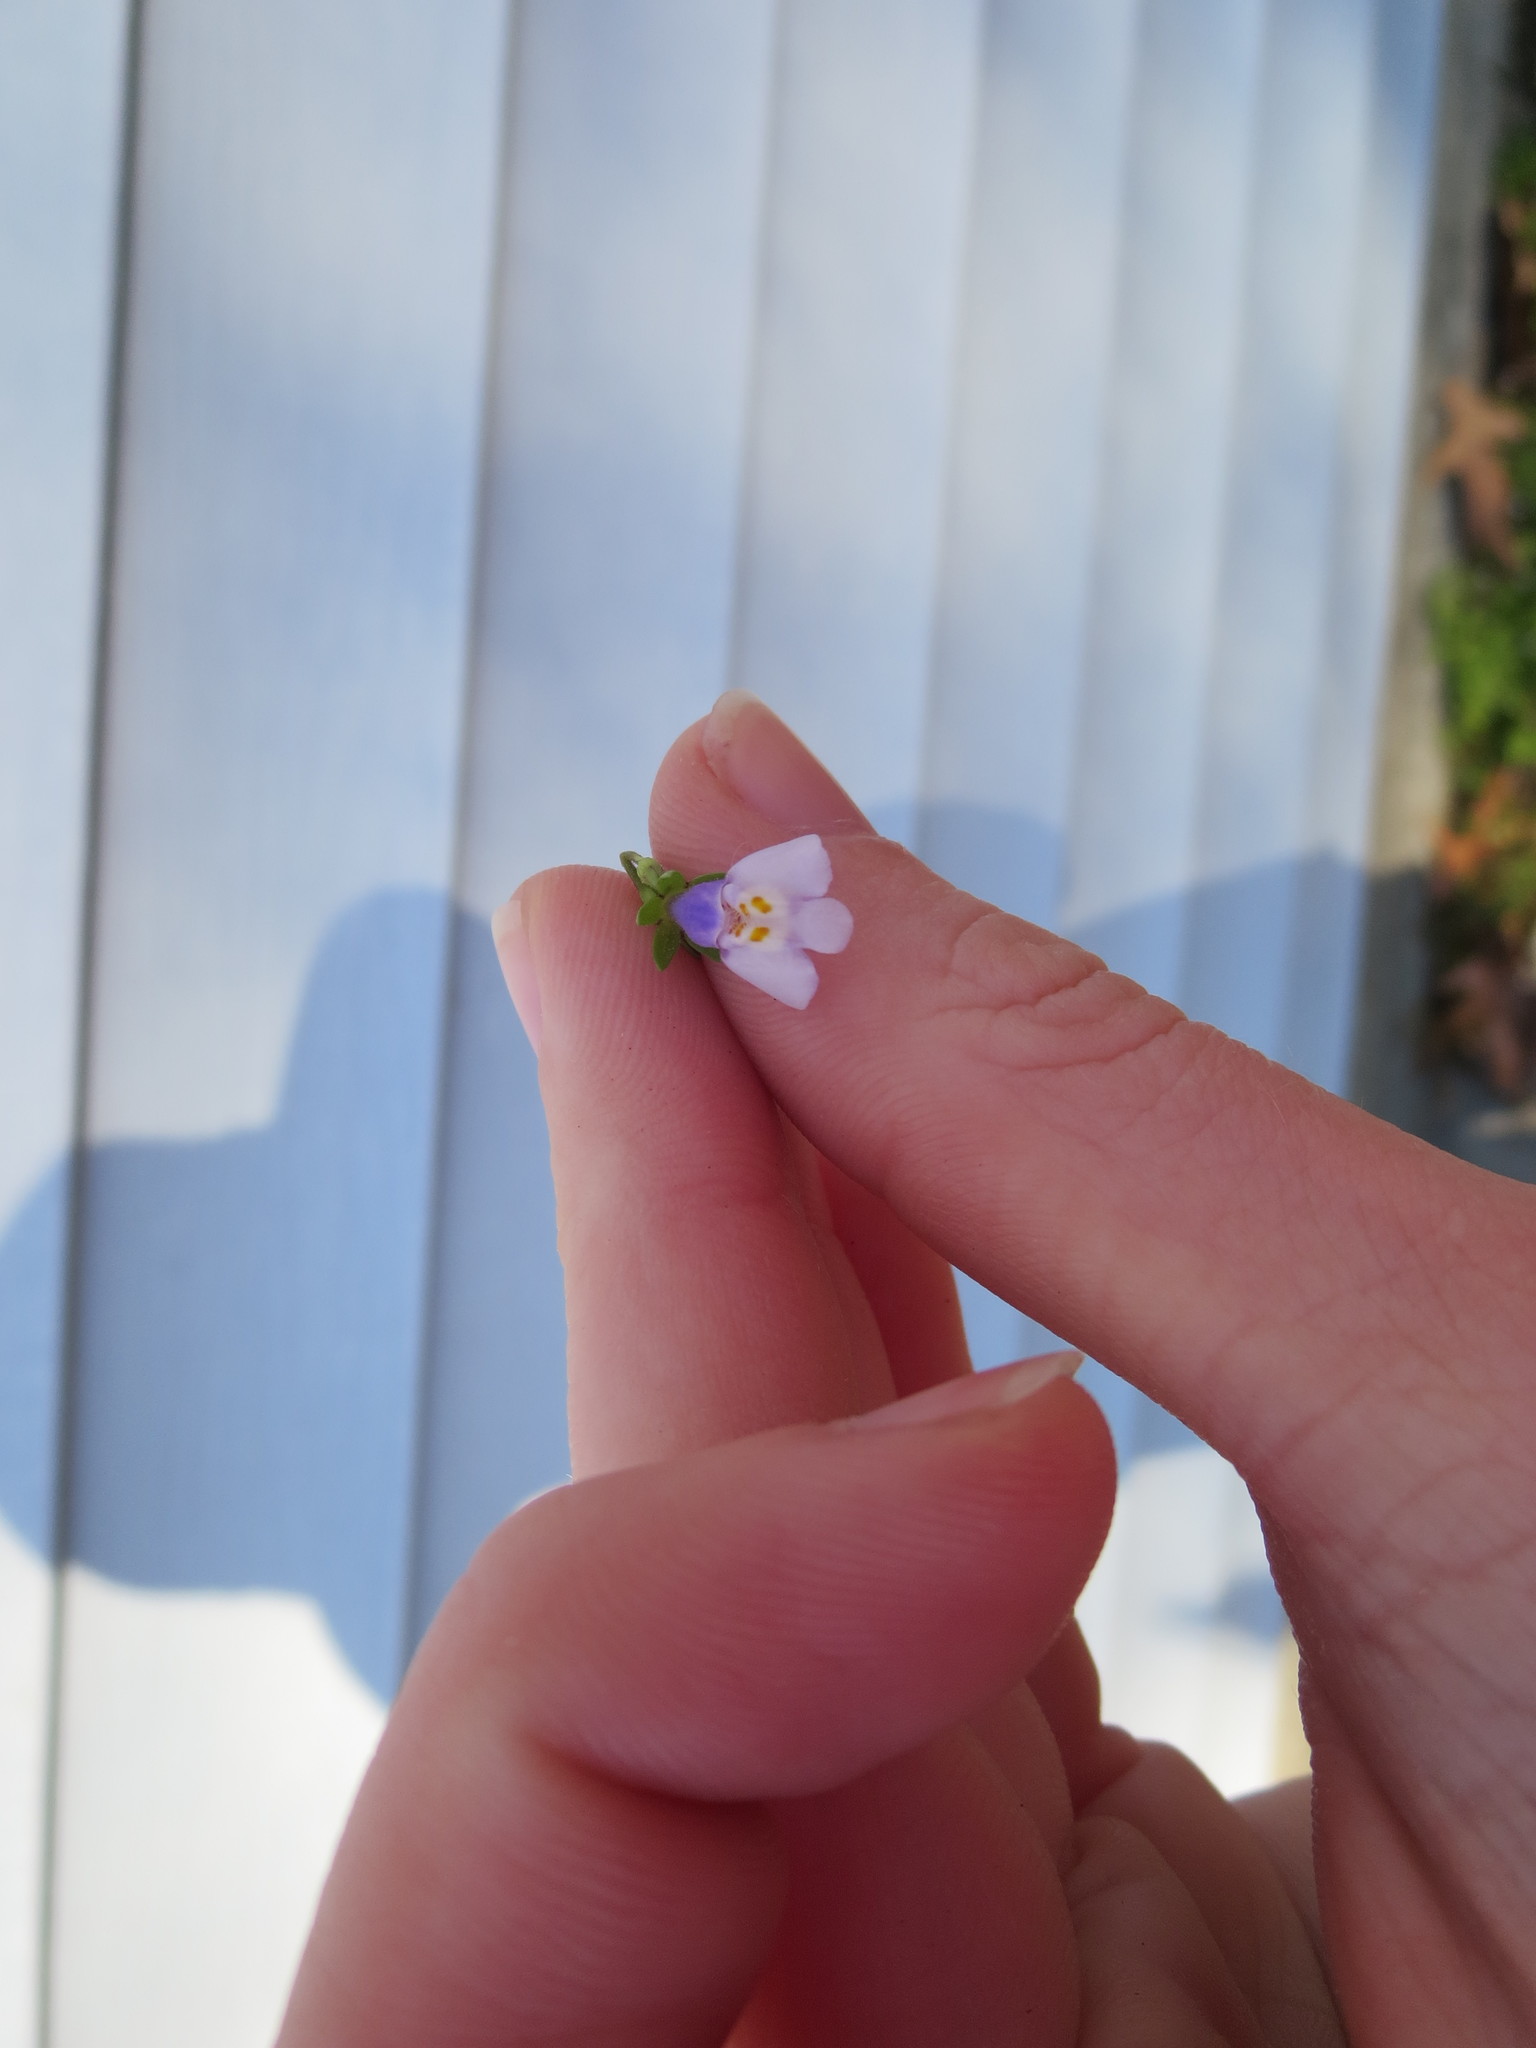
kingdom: Plantae
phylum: Tracheophyta
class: Magnoliopsida
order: Lamiales
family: Mazaceae
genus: Mazus
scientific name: Mazus pumilus
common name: Japanese mazus
